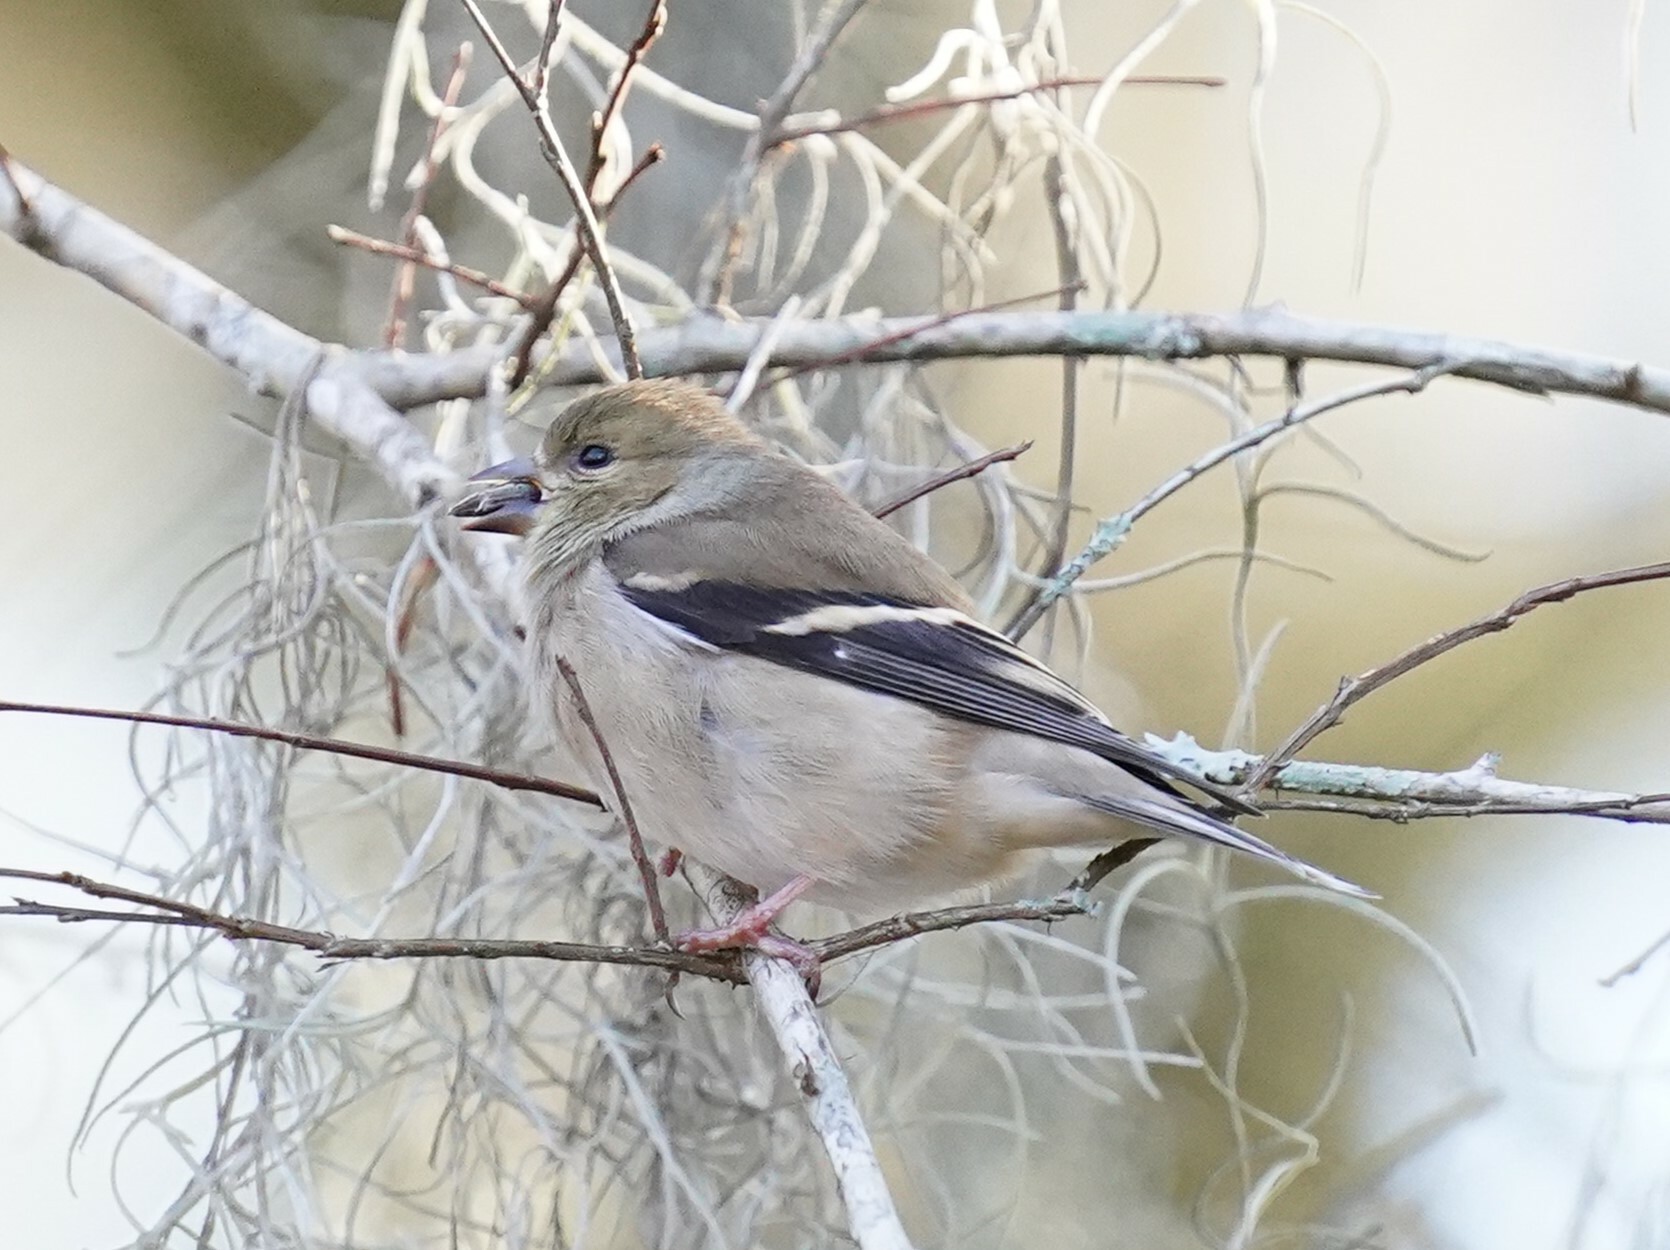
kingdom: Animalia
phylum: Chordata
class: Aves
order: Passeriformes
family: Fringillidae
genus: Spinus
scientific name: Spinus tristis
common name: American goldfinch
